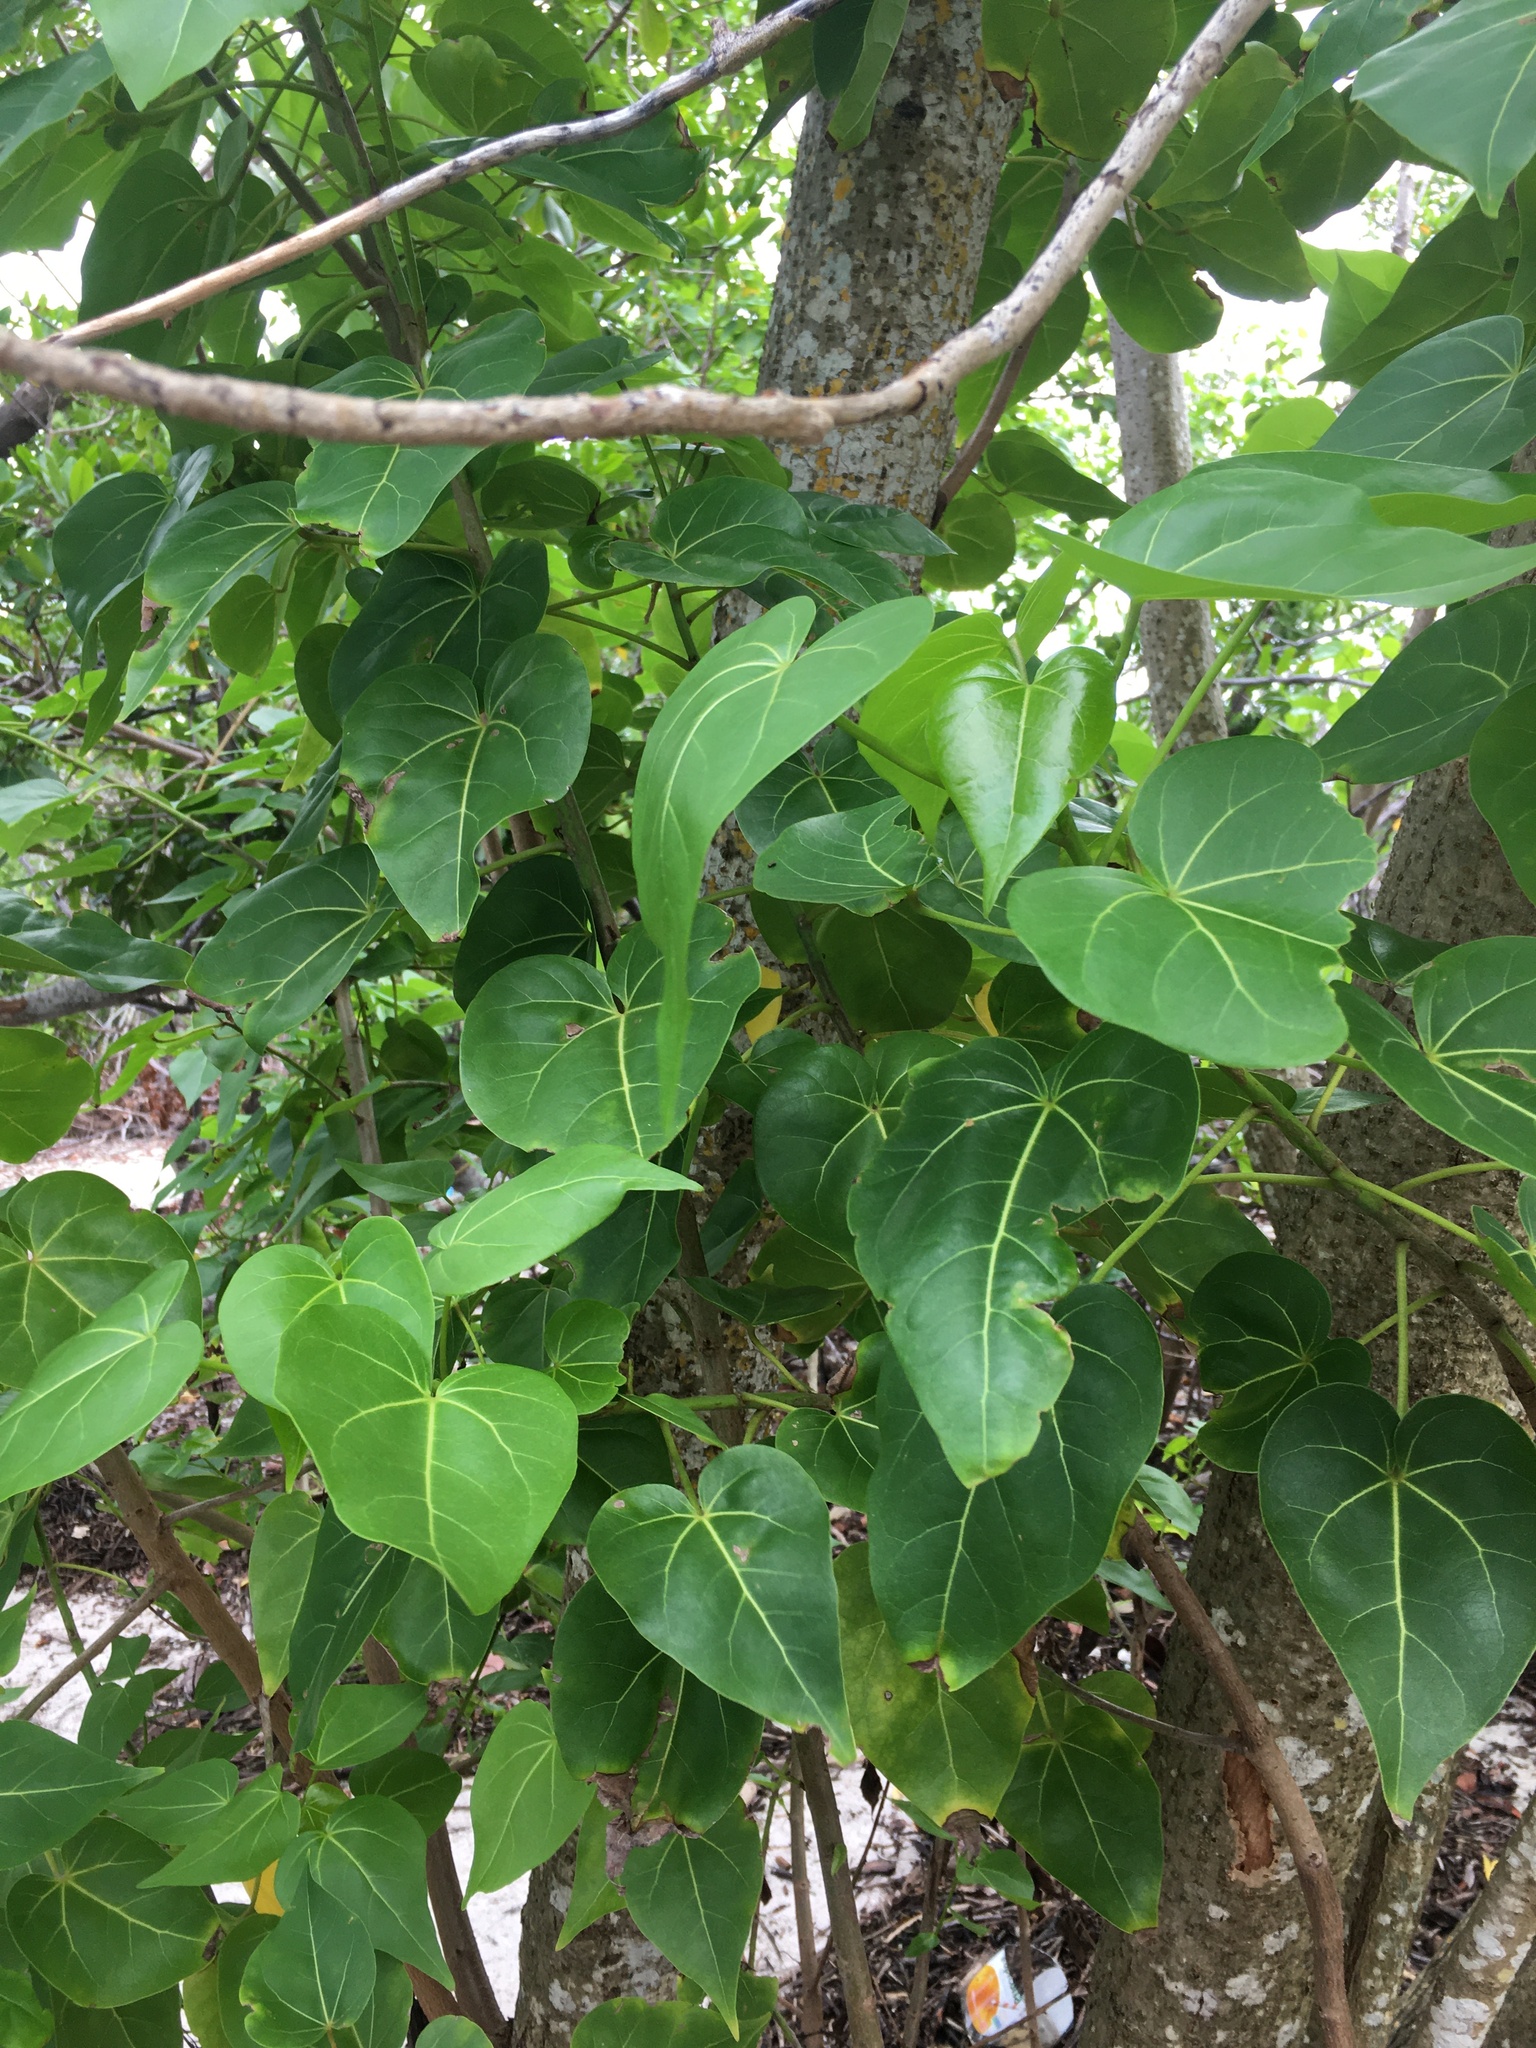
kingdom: Plantae
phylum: Tracheophyta
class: Magnoliopsida
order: Malvales
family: Malvaceae
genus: Thespesia
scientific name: Thespesia populnea
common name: Seaside mahoe
